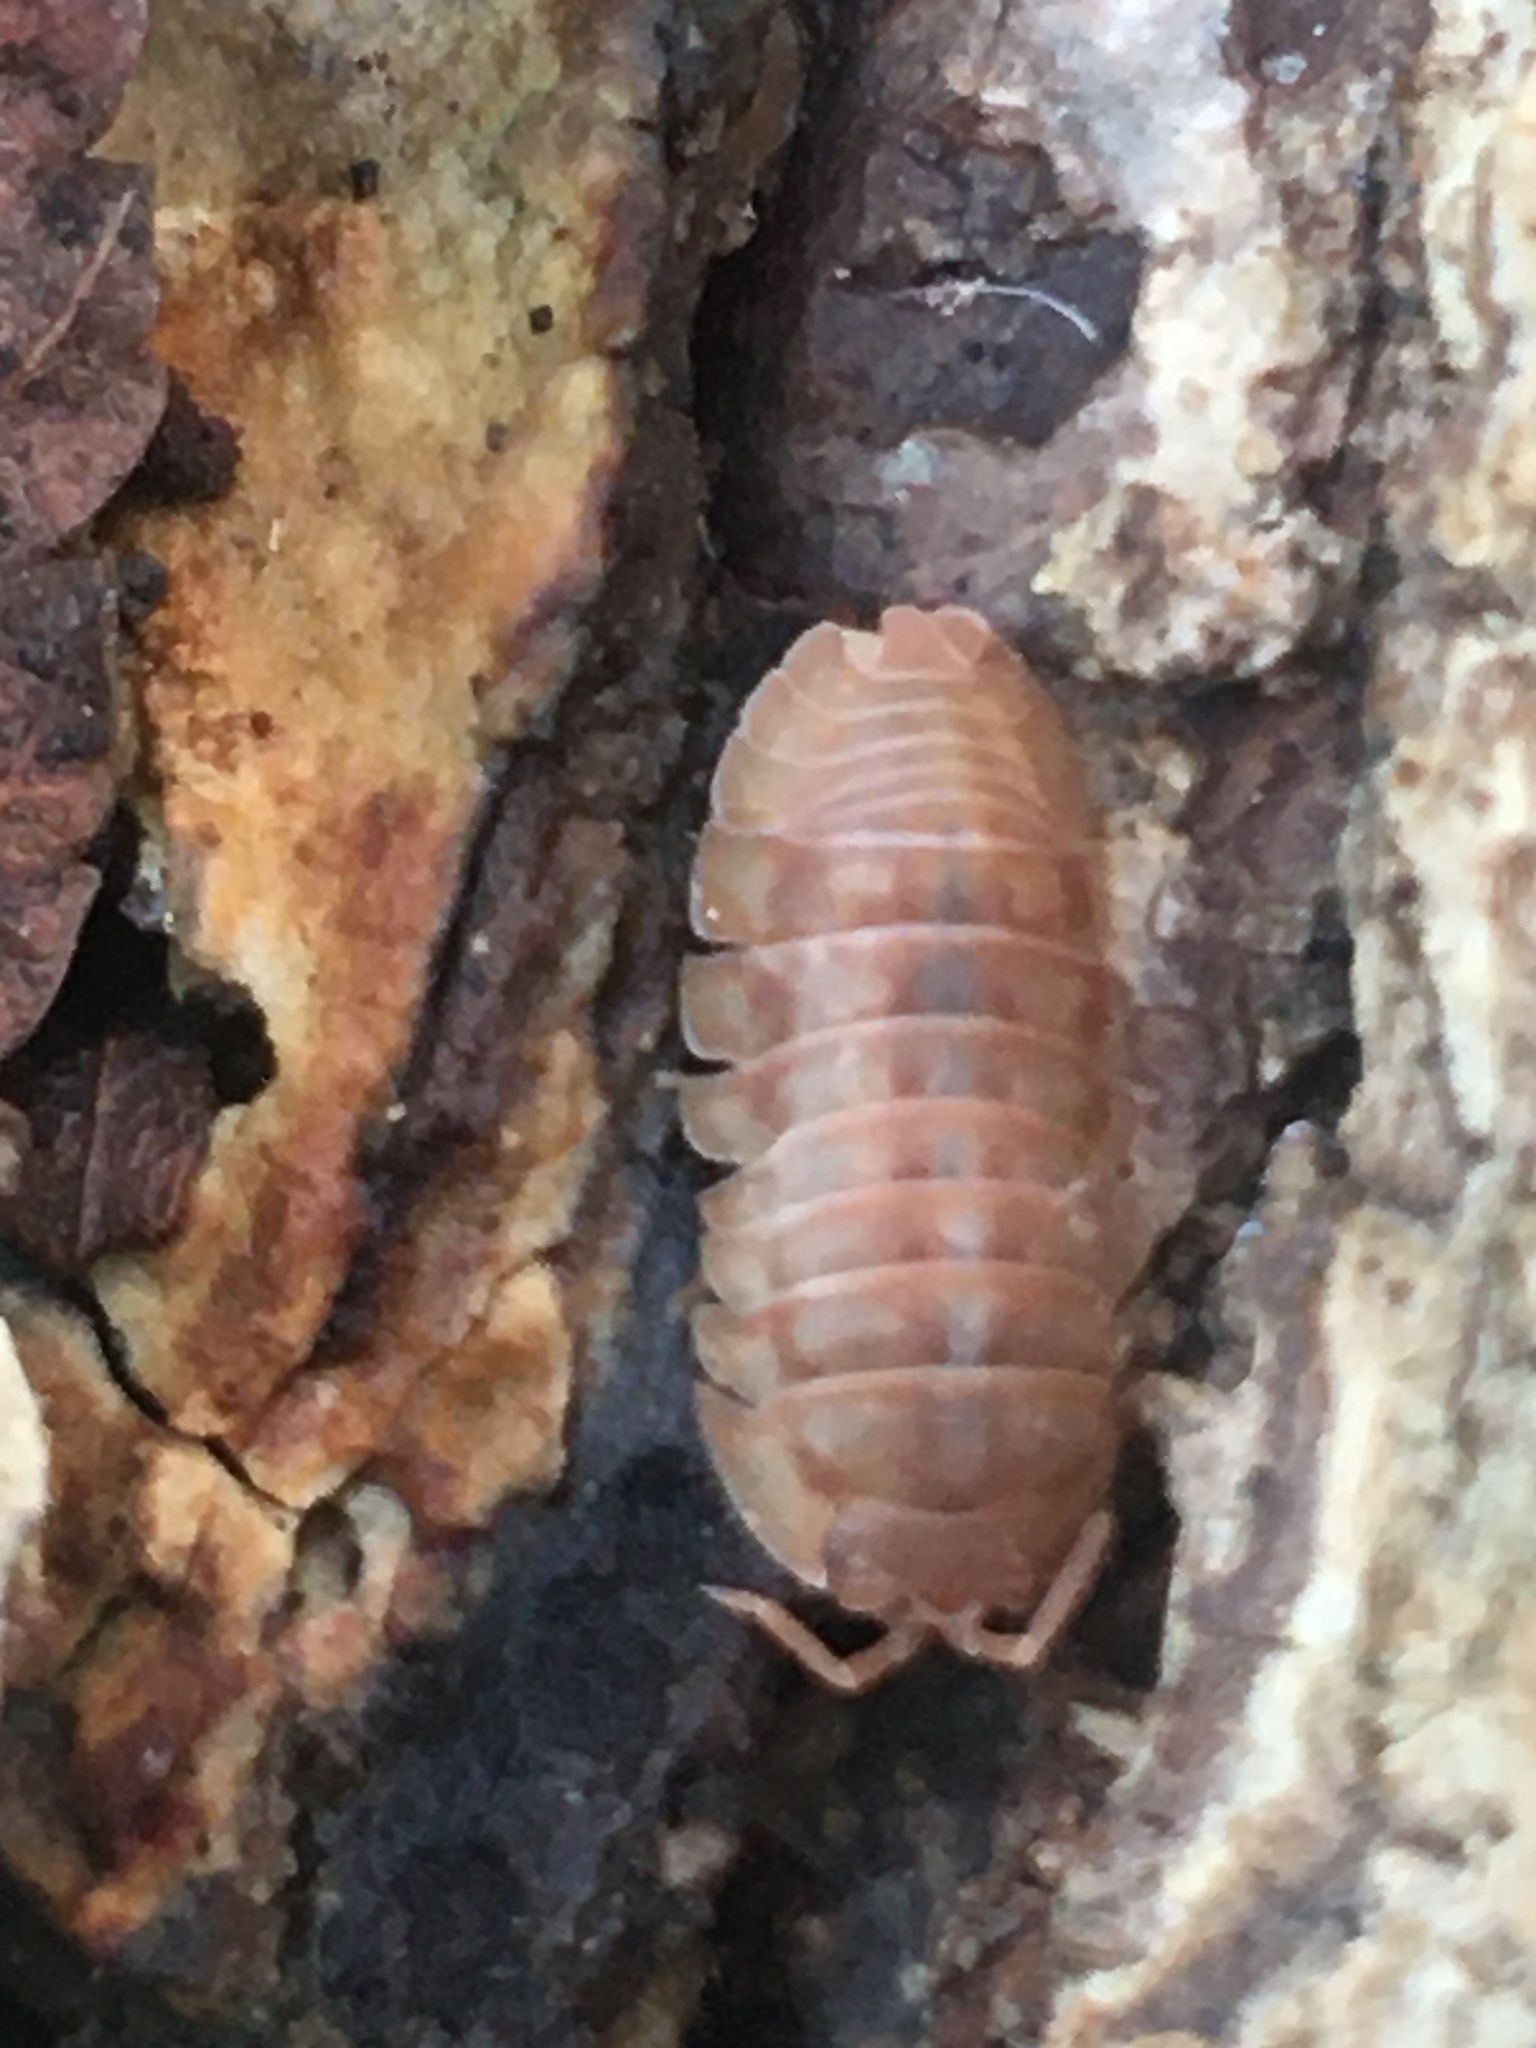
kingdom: Animalia
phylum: Arthropoda
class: Malacostraca
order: Isopoda
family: Armadillidiidae
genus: Armadillidium
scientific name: Armadillidium nasatum
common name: Isopod
